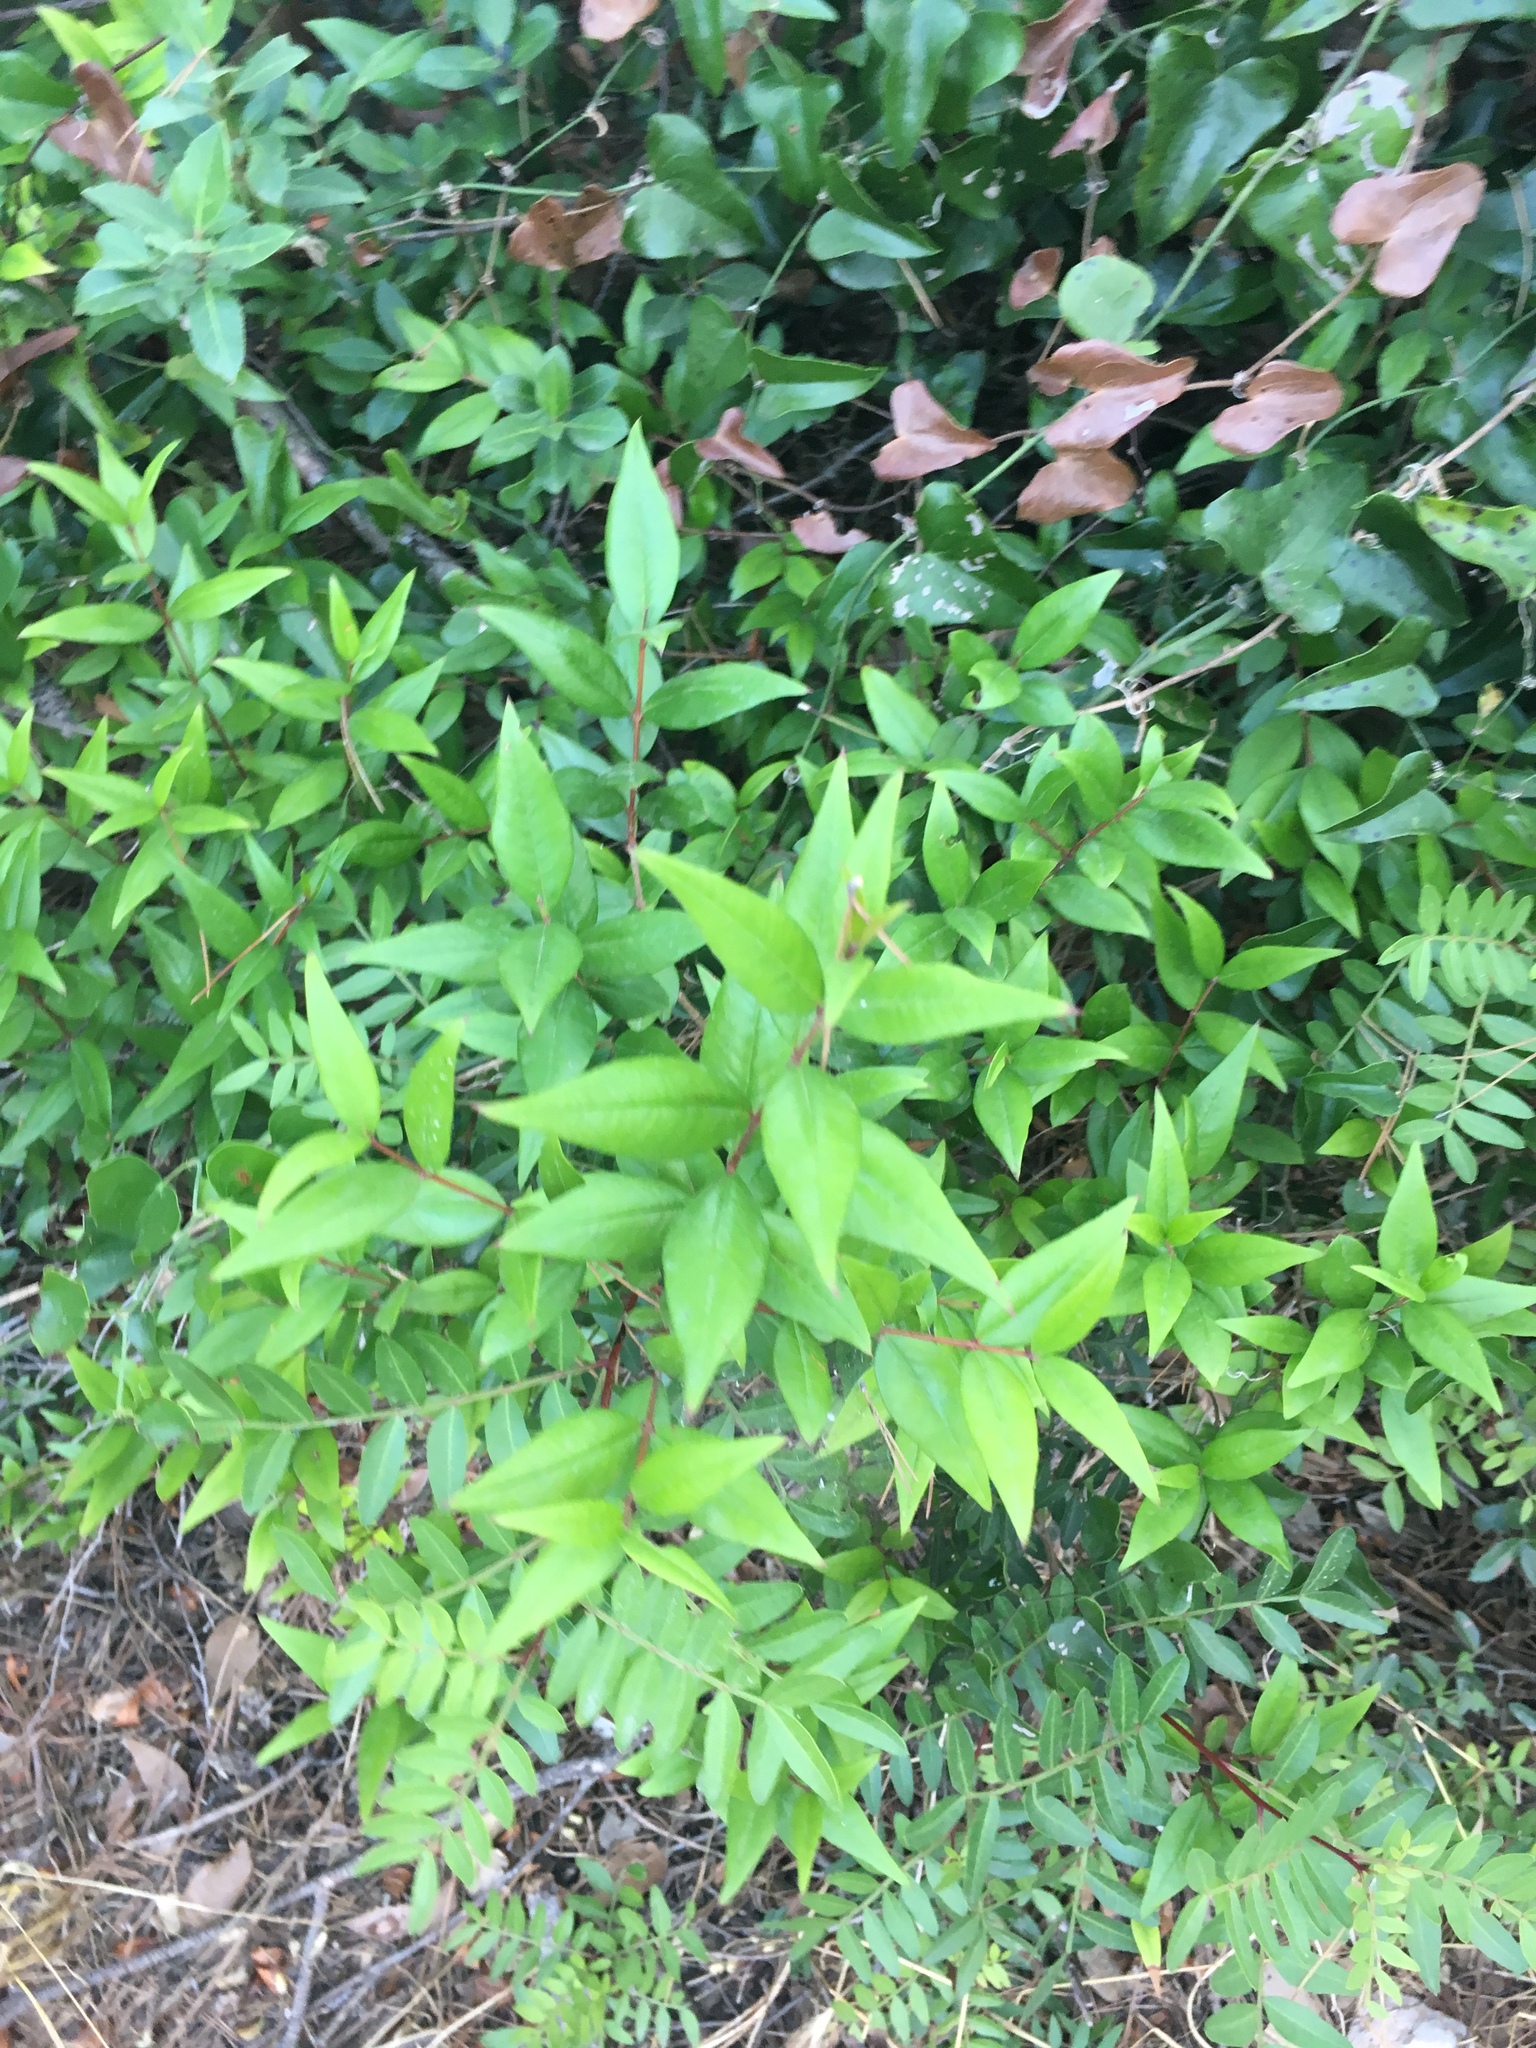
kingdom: Plantae
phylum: Tracheophyta
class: Magnoliopsida
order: Myrtales
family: Myrtaceae
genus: Myrtus
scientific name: Myrtus communis
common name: Myrtle
